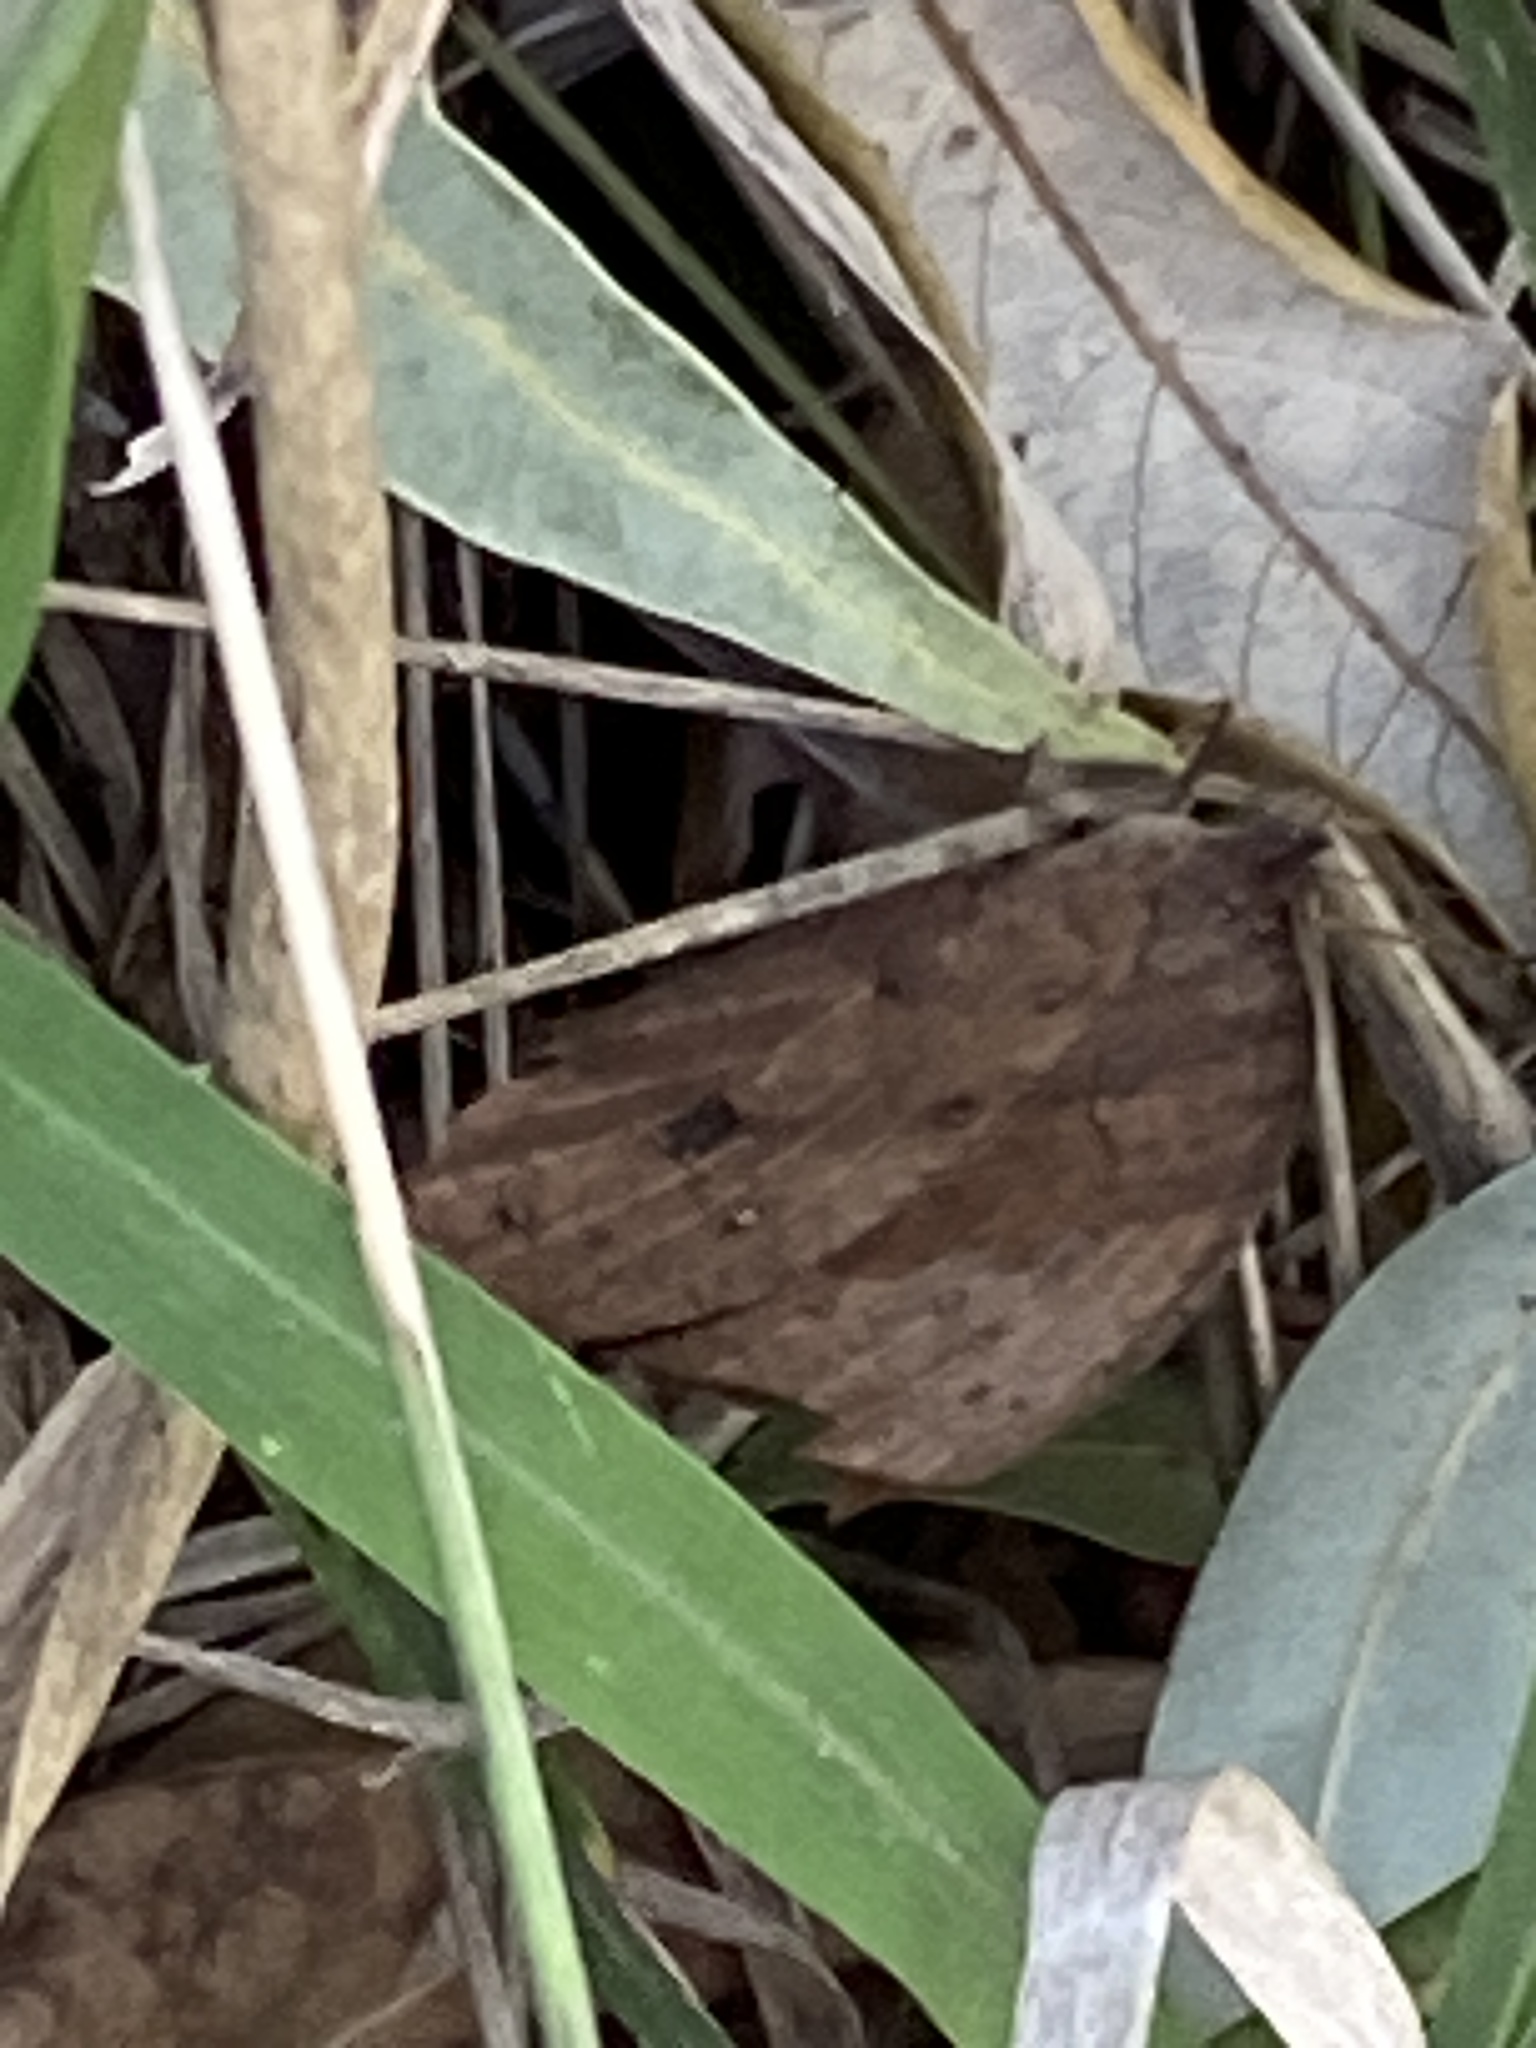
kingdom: Animalia
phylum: Arthropoda
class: Insecta
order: Lepidoptera
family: Nymphalidae
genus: Melanitis
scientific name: Melanitis leda
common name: Twilight brown
